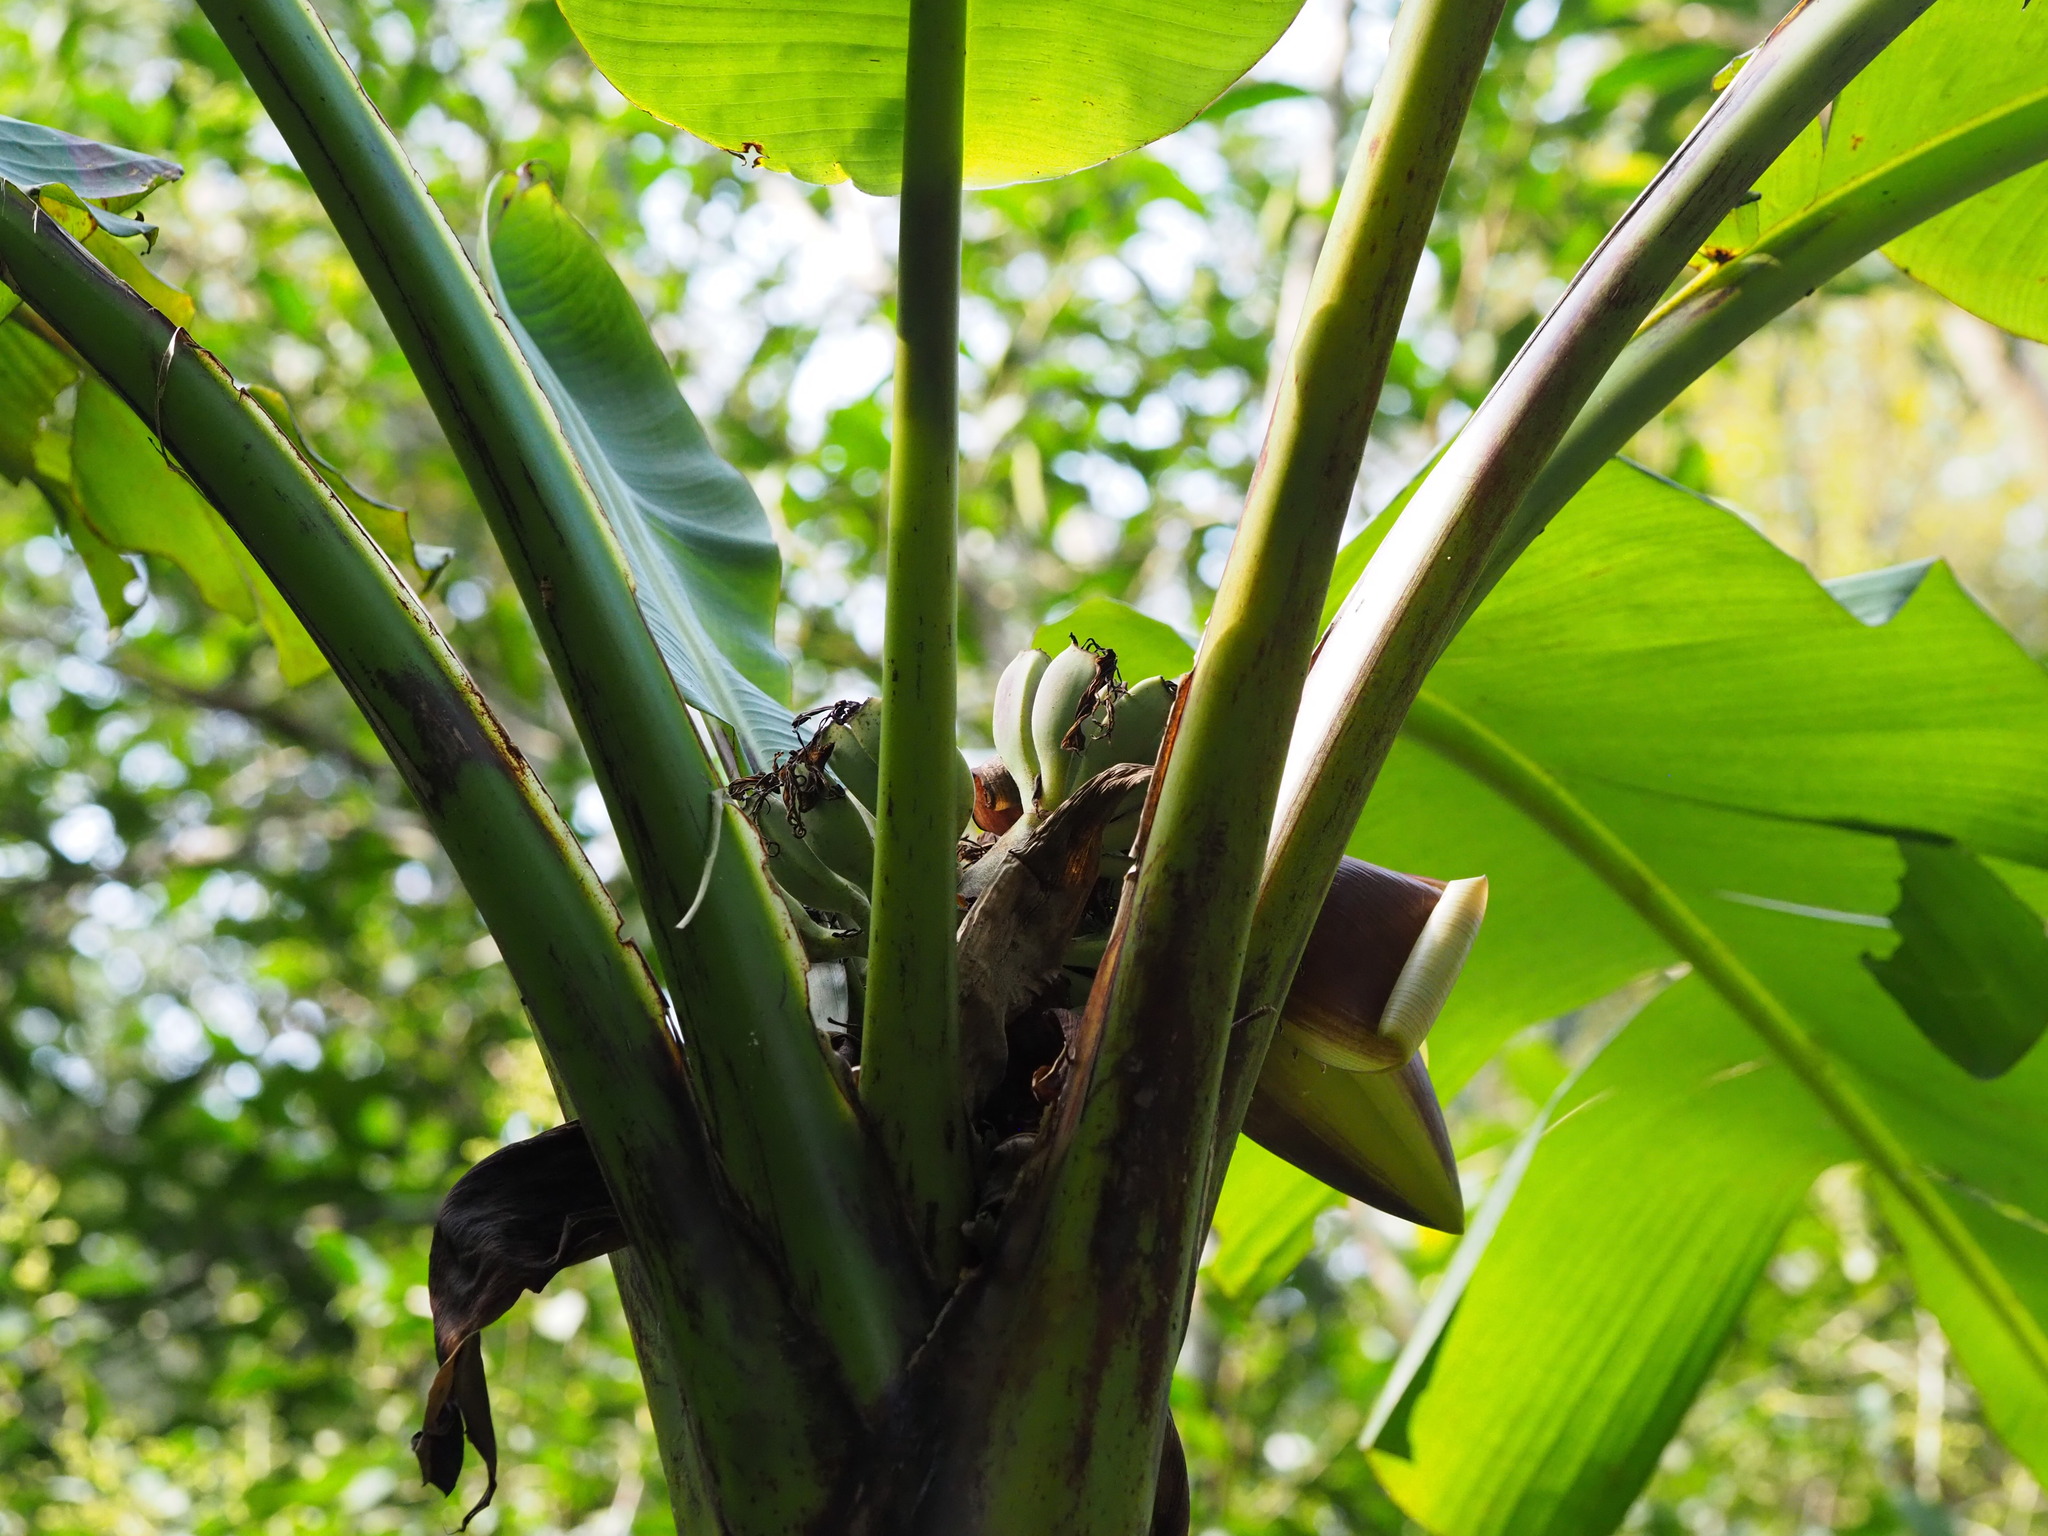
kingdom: Plantae
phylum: Tracheophyta
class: Liliopsida
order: Zingiberales
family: Musaceae
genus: Musa
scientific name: Musa itinerans
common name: Yunnan banana
